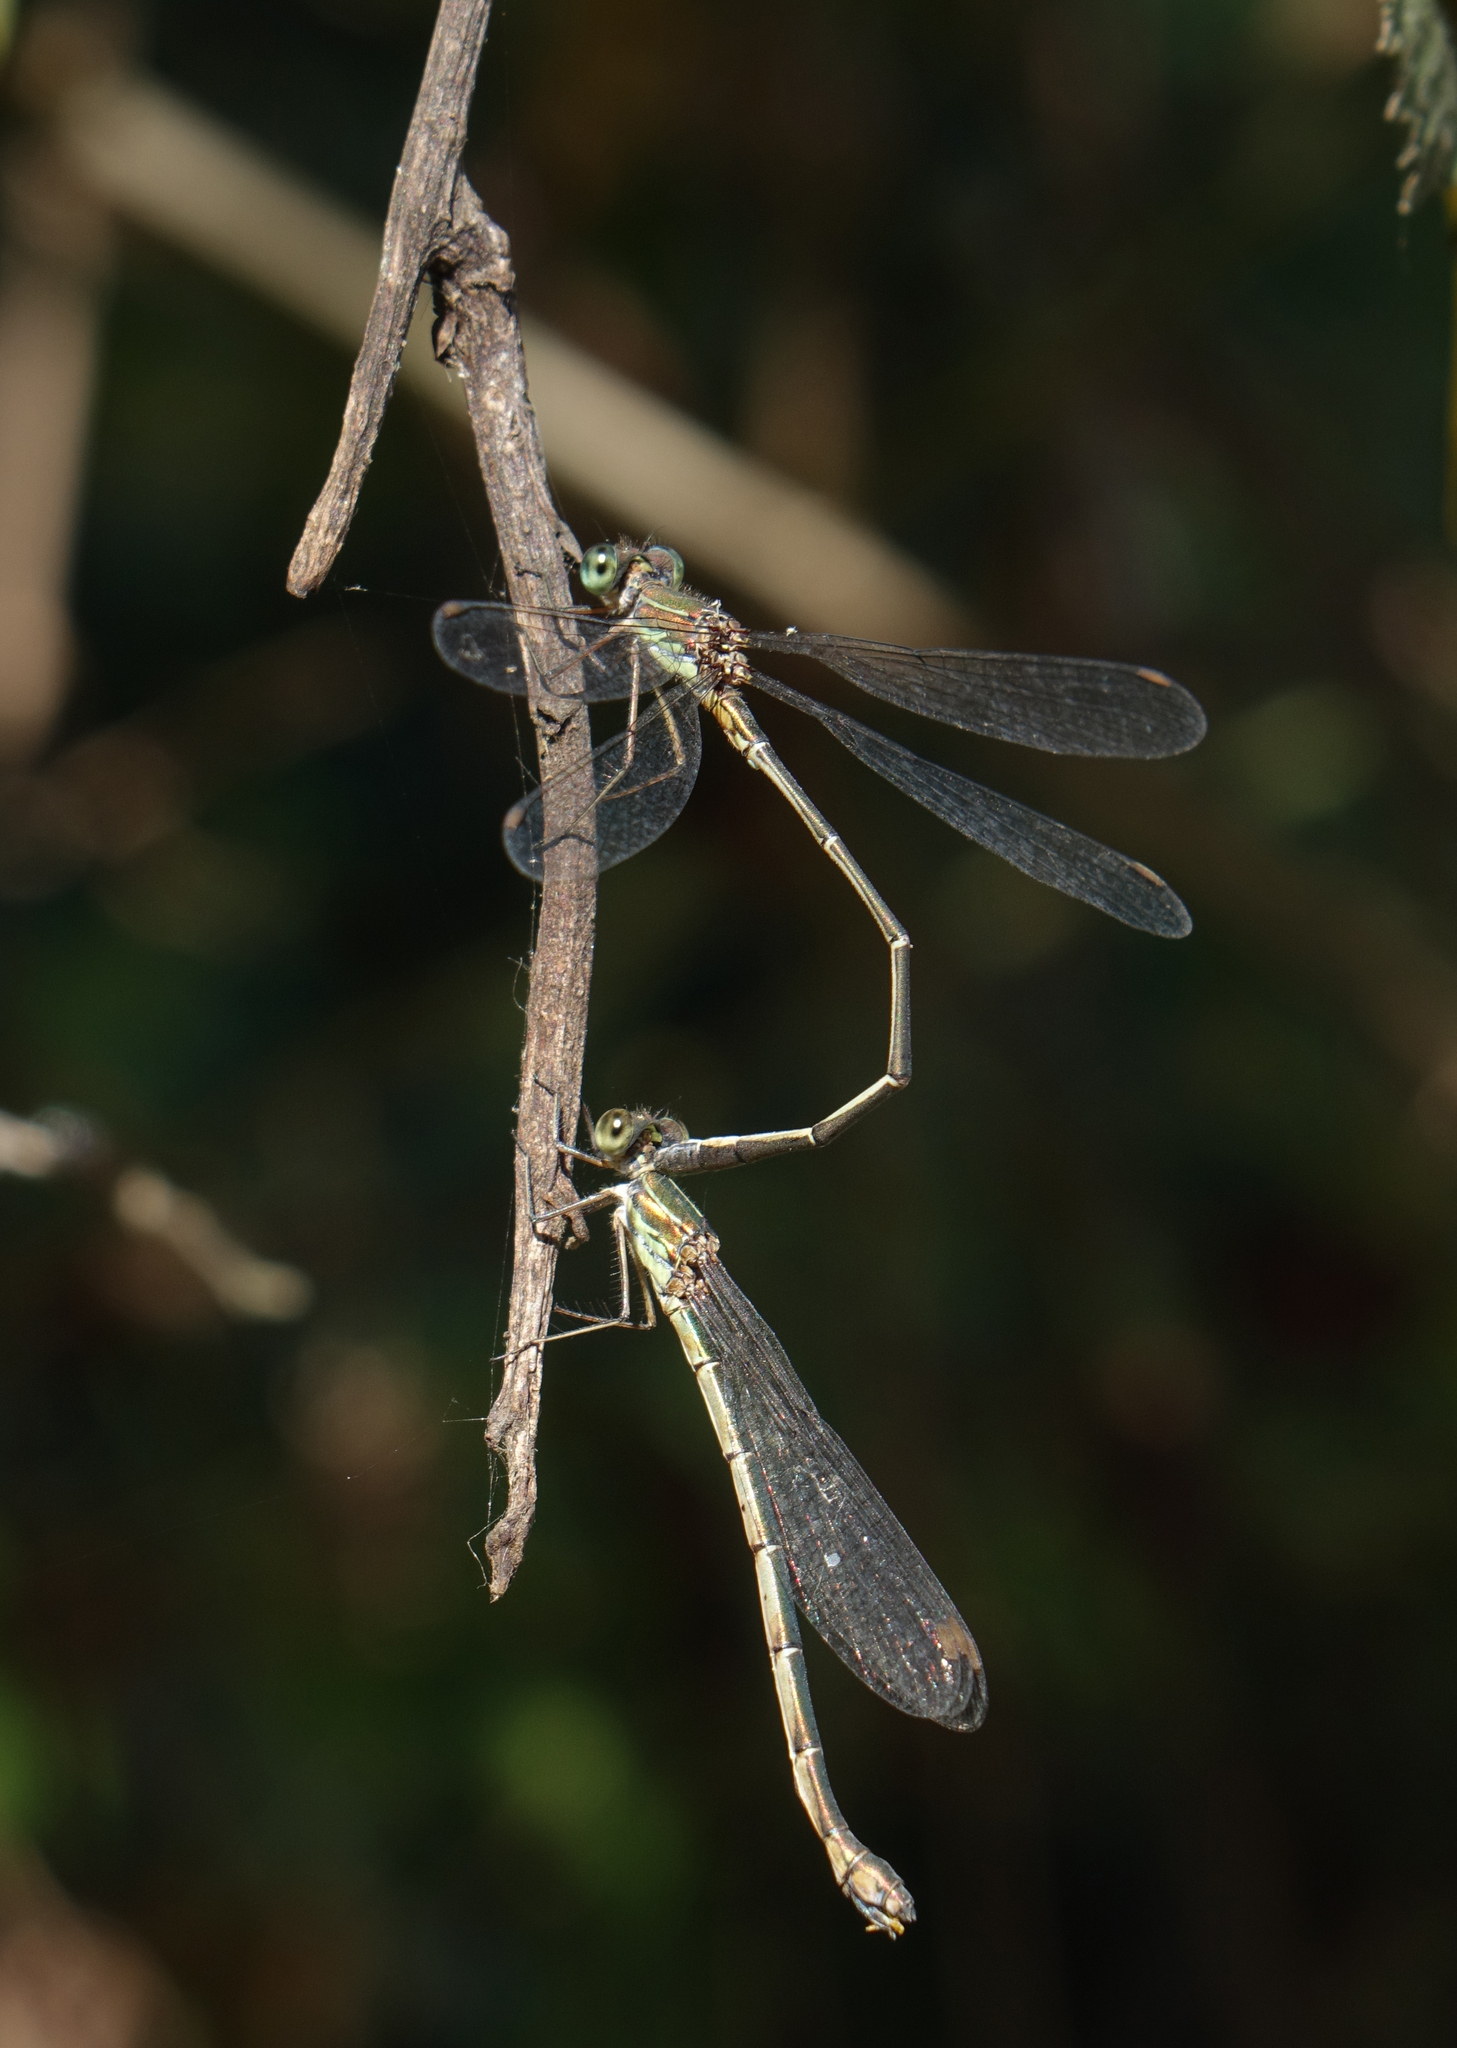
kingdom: Animalia
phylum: Arthropoda
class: Insecta
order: Odonata
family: Lestidae
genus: Chalcolestes
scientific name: Chalcolestes parvidens
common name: Eastern willow spreadwing
